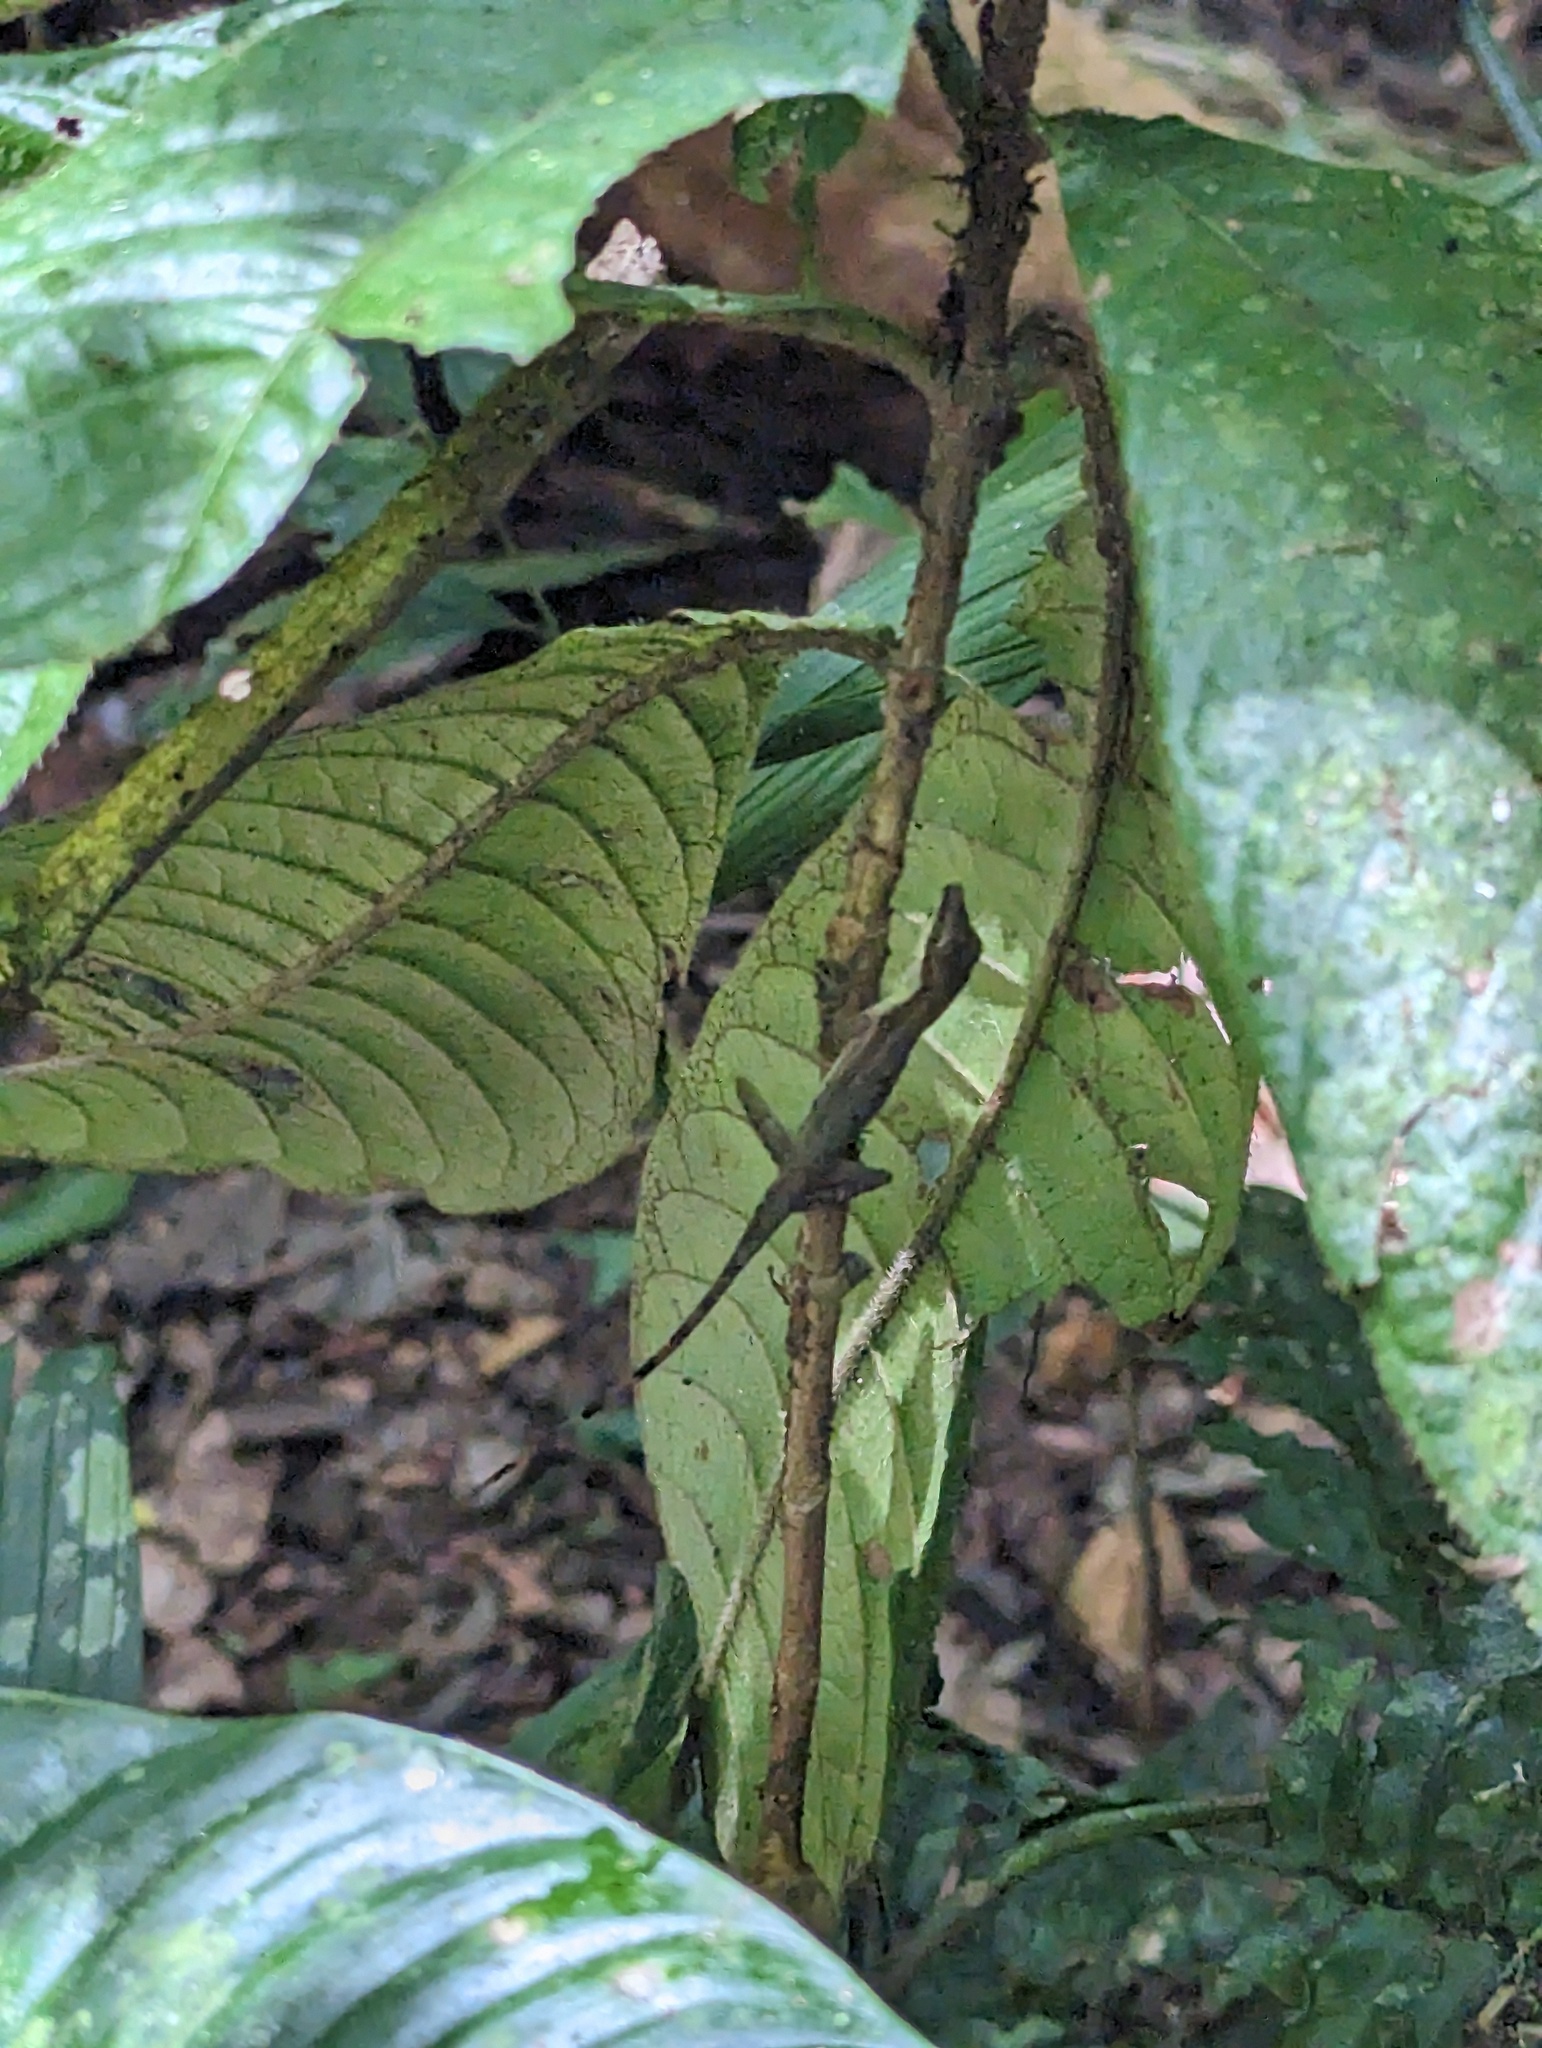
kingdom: Animalia
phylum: Chordata
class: Squamata
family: Dactyloidae
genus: Anolis
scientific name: Anolis limifrons
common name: Border anole
